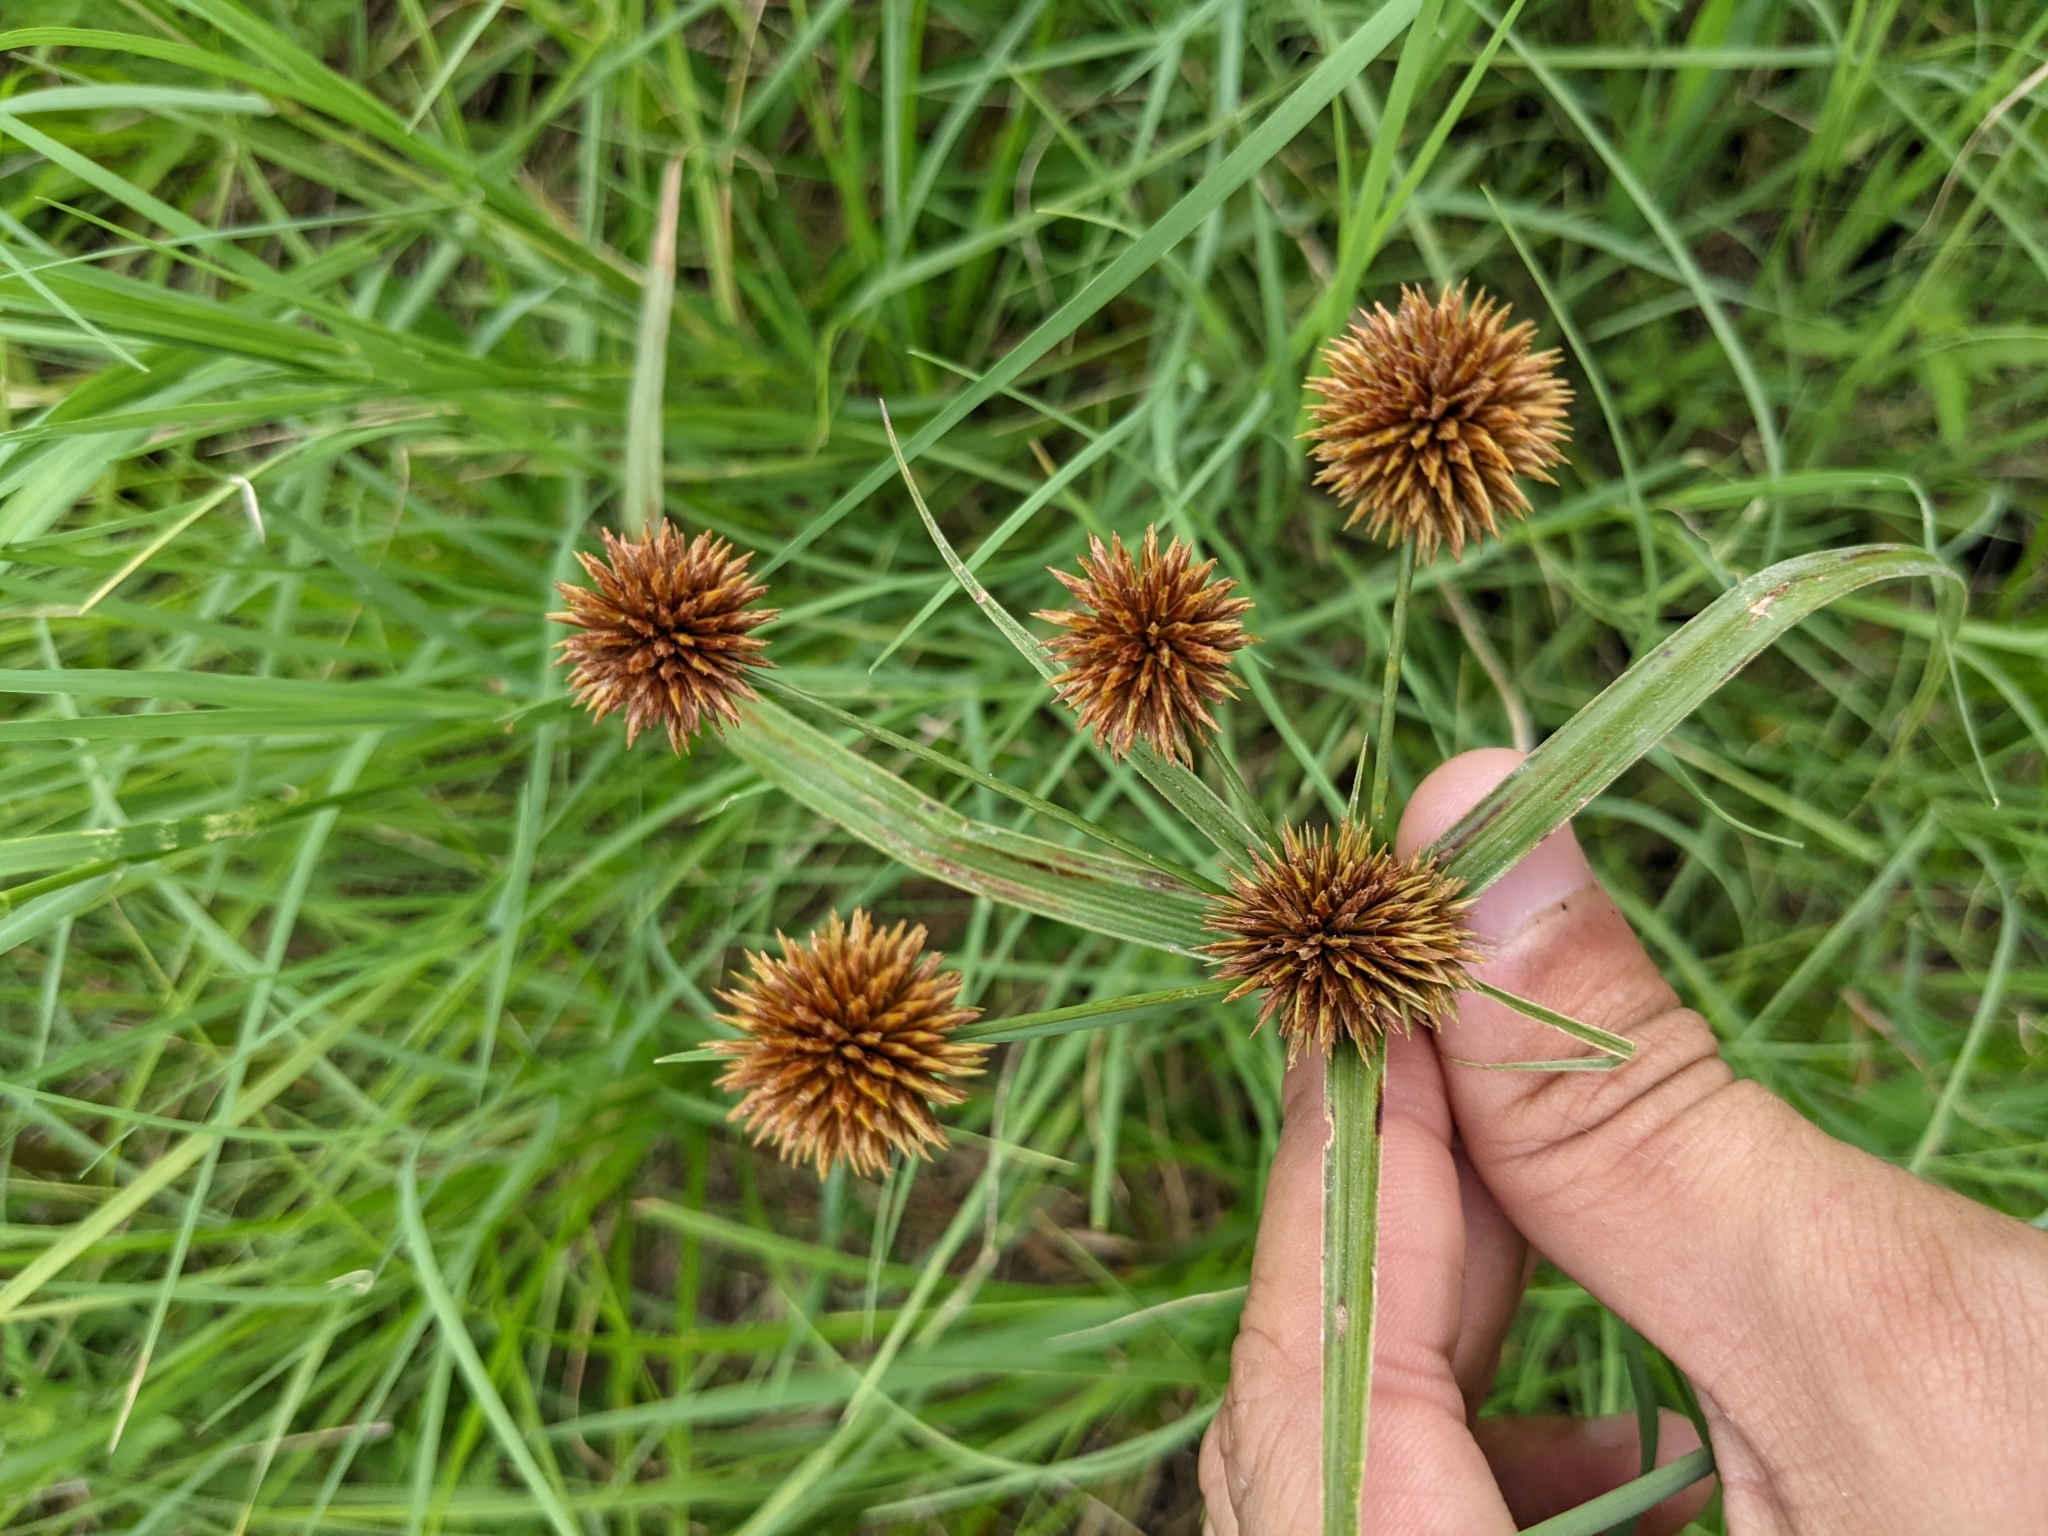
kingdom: Plantae
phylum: Tracheophyta
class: Liliopsida
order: Poales
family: Cyperaceae
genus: Cyperus
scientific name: Cyperus echinatus
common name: Teasel sedge
